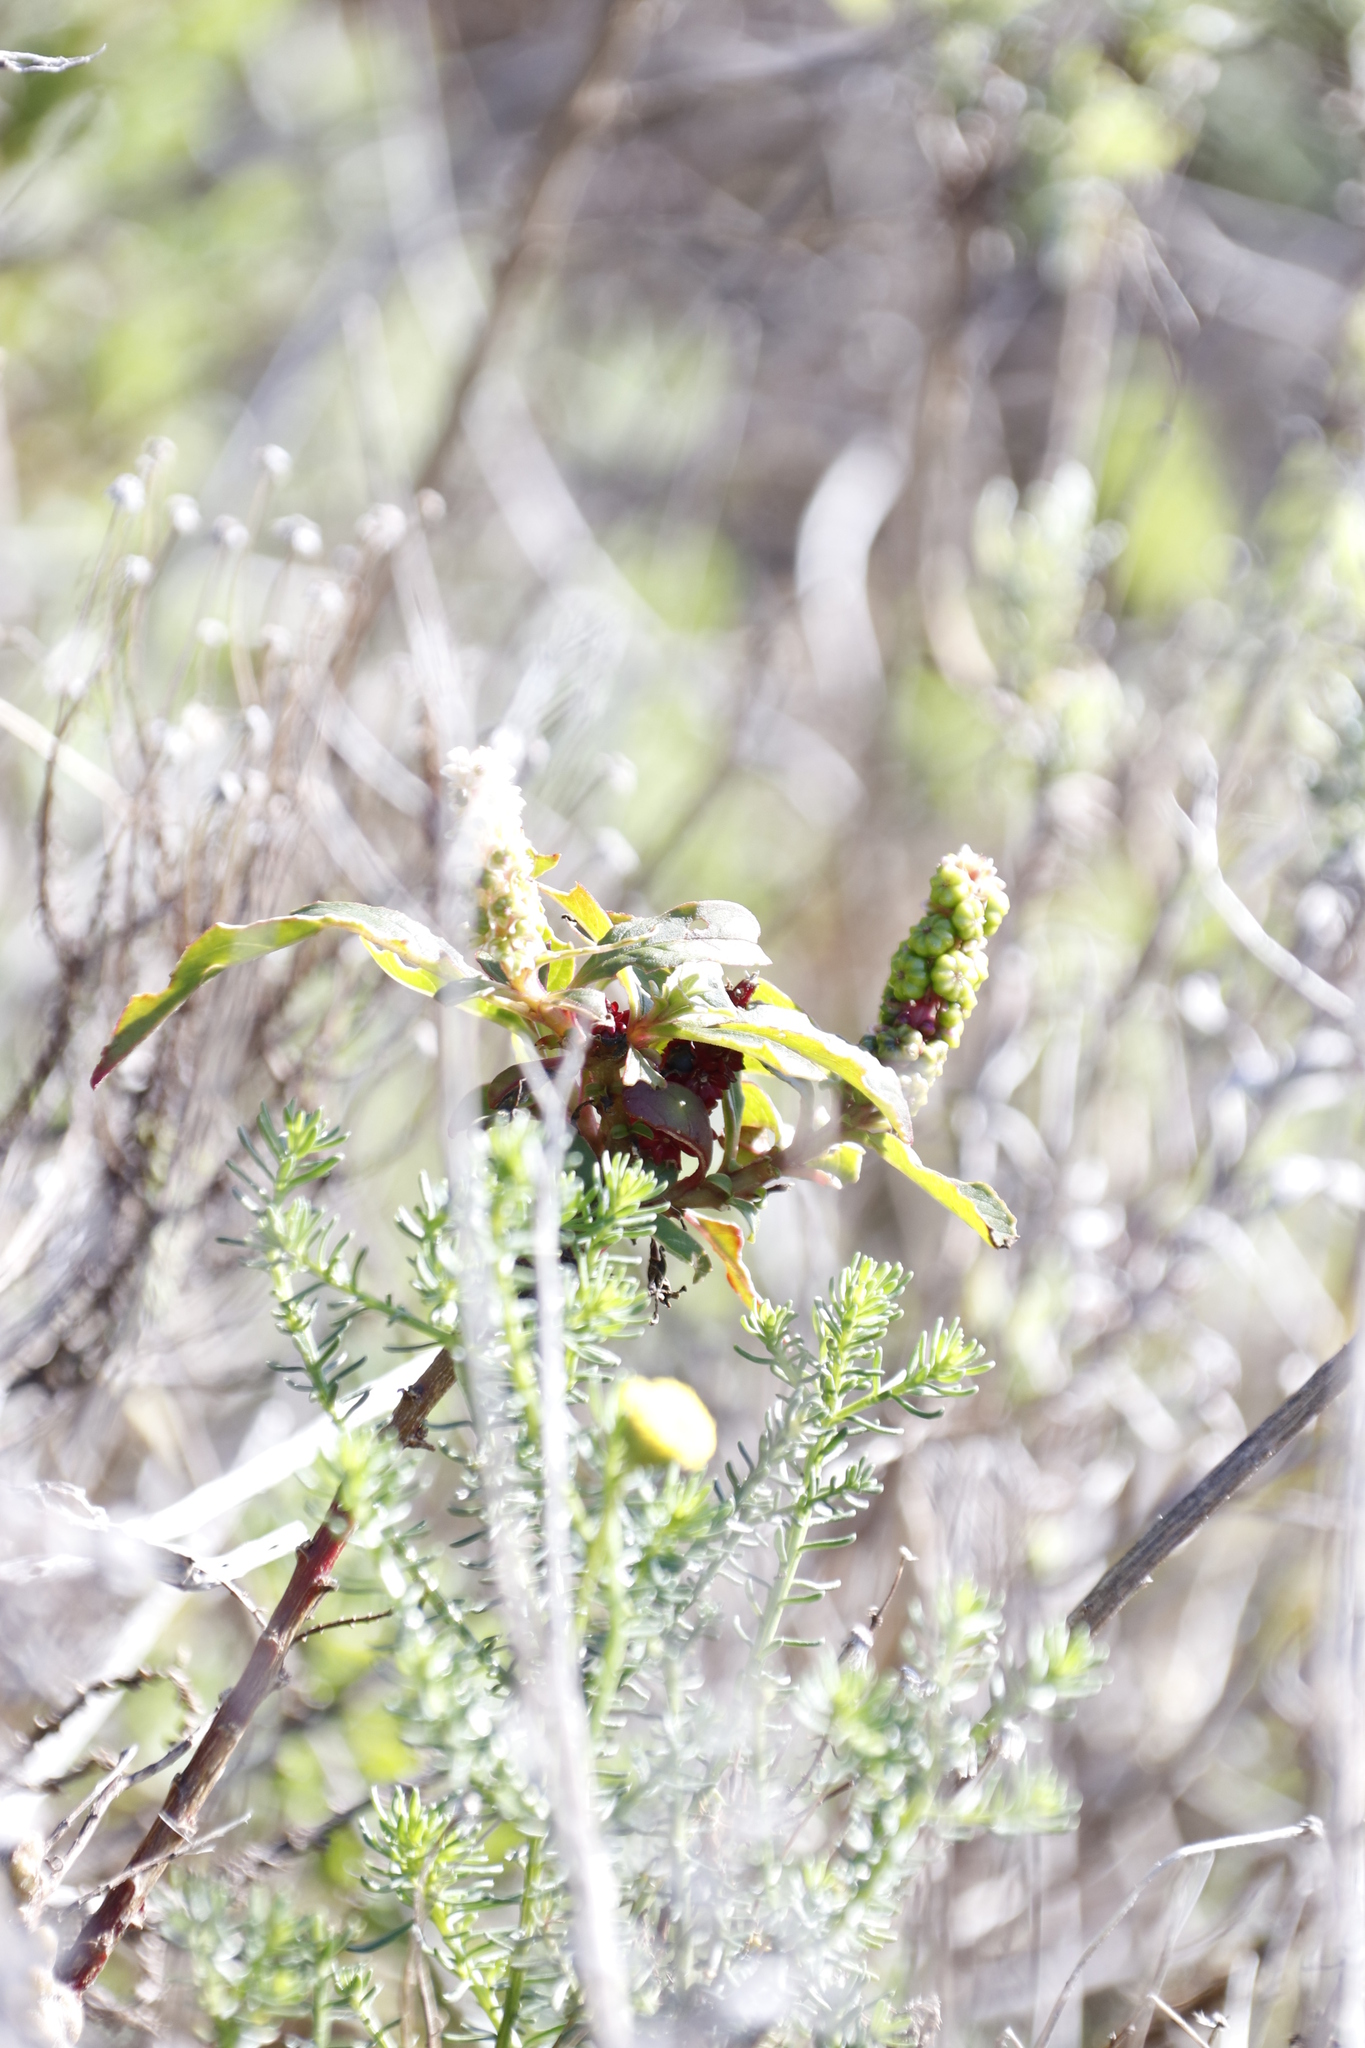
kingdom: Plantae
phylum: Tracheophyta
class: Magnoliopsida
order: Caryophyllales
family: Phytolaccaceae
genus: Phytolacca
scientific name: Phytolacca icosandra
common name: Button pokeweed
